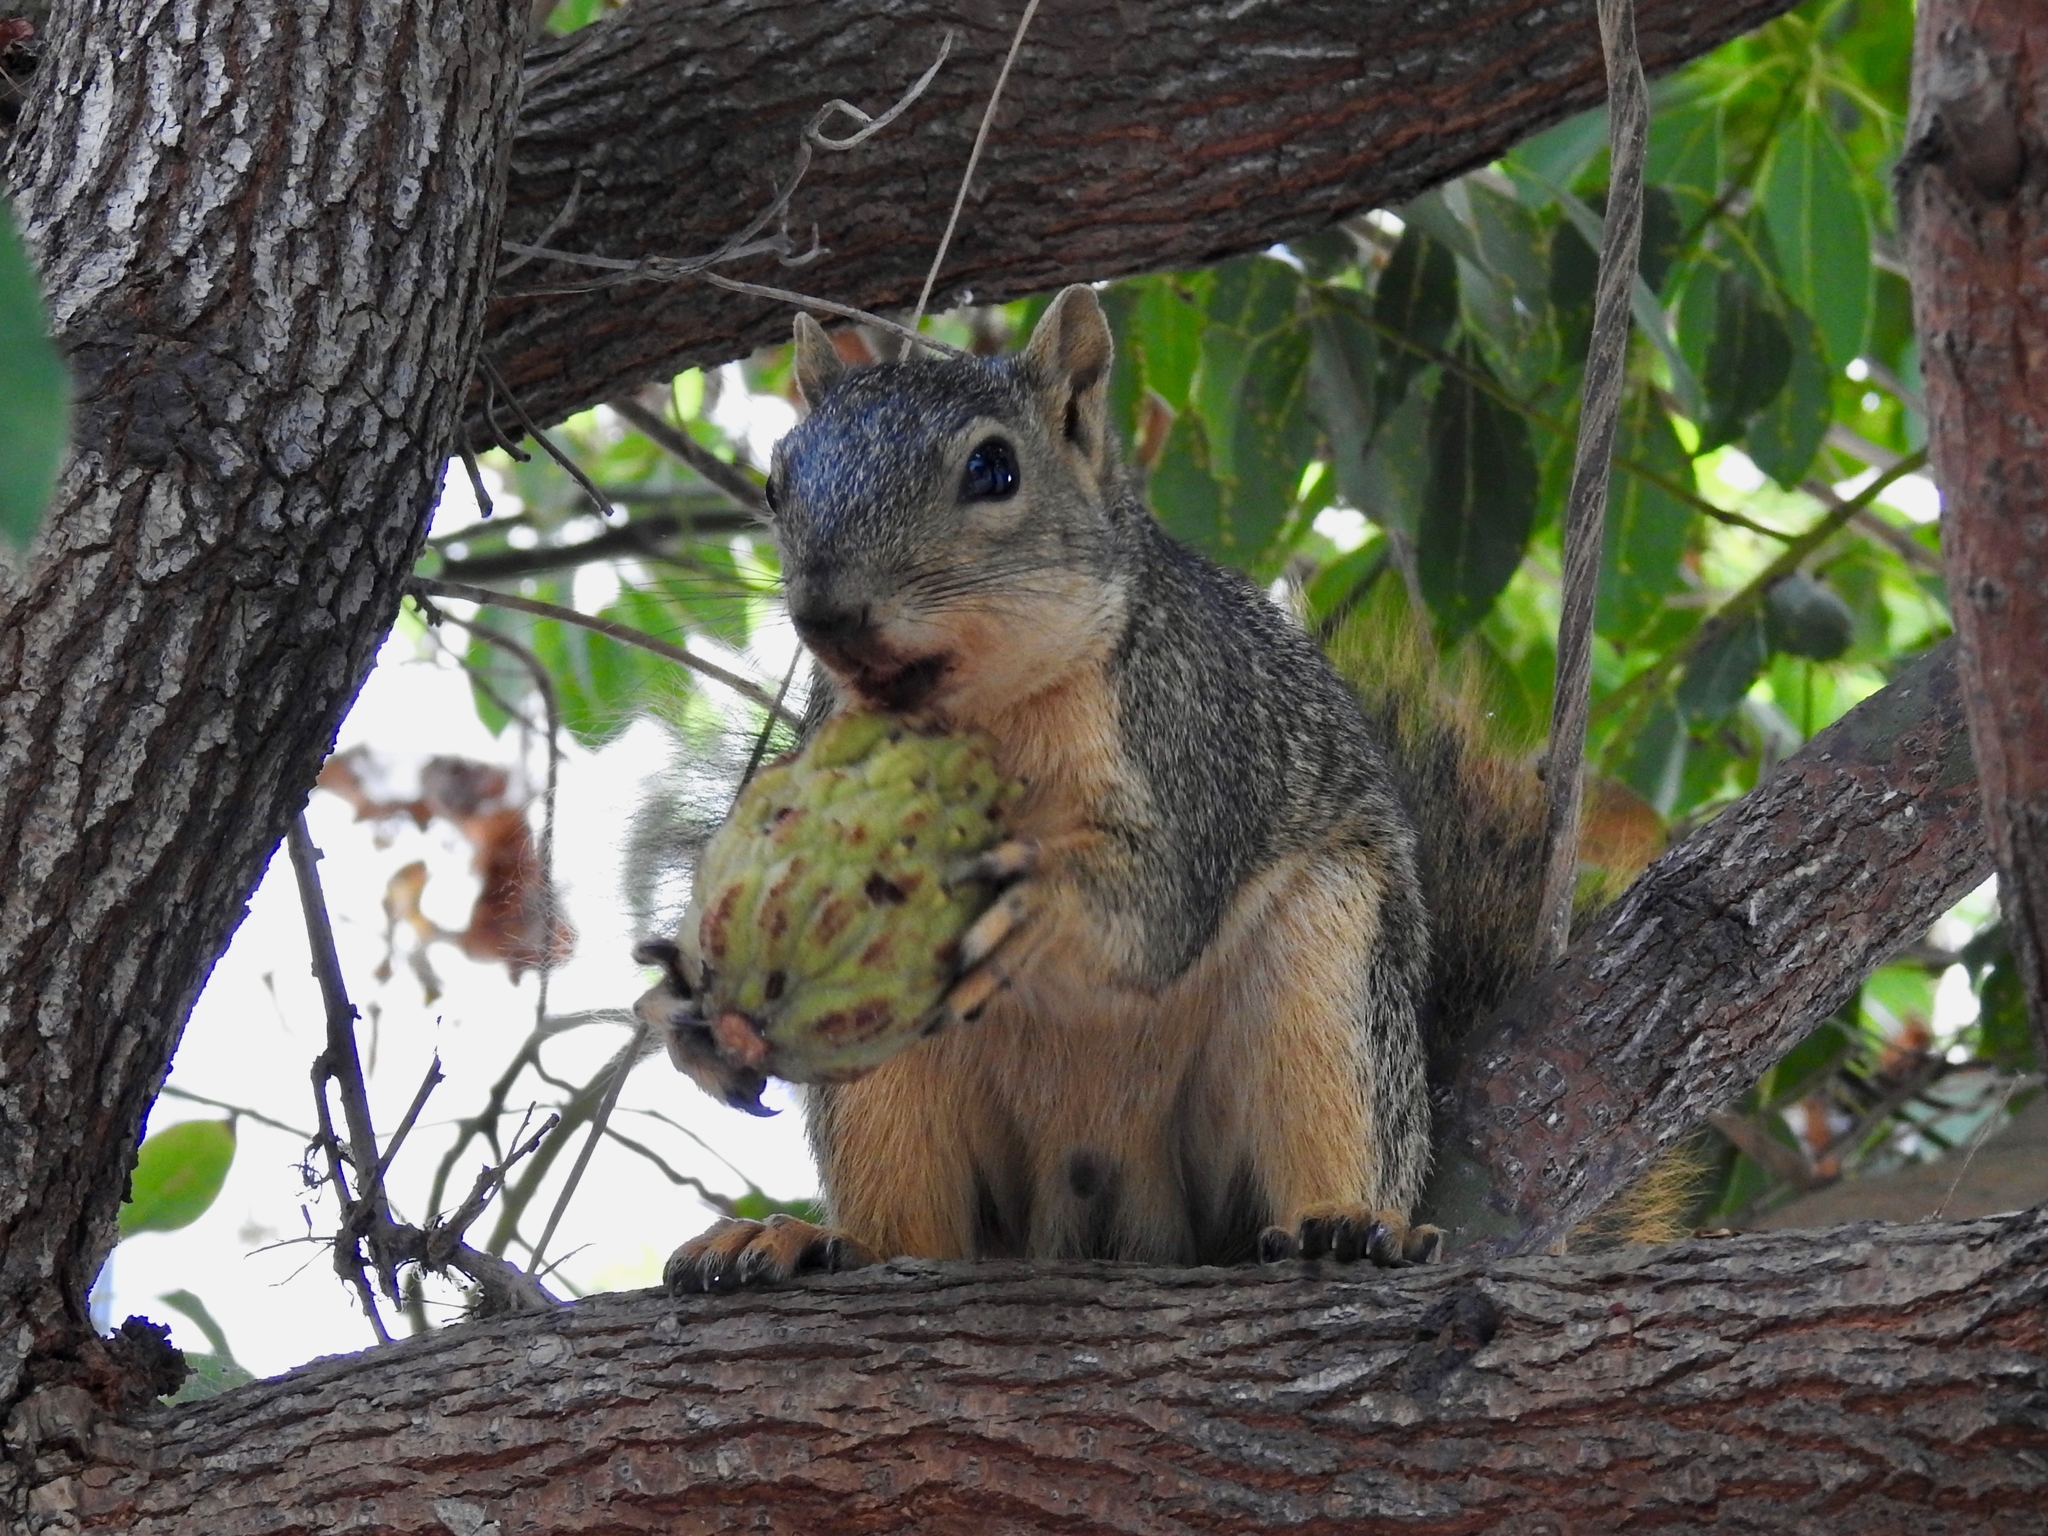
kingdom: Animalia
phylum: Chordata
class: Mammalia
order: Rodentia
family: Sciuridae
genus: Sciurus
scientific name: Sciurus niger
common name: Fox squirrel
